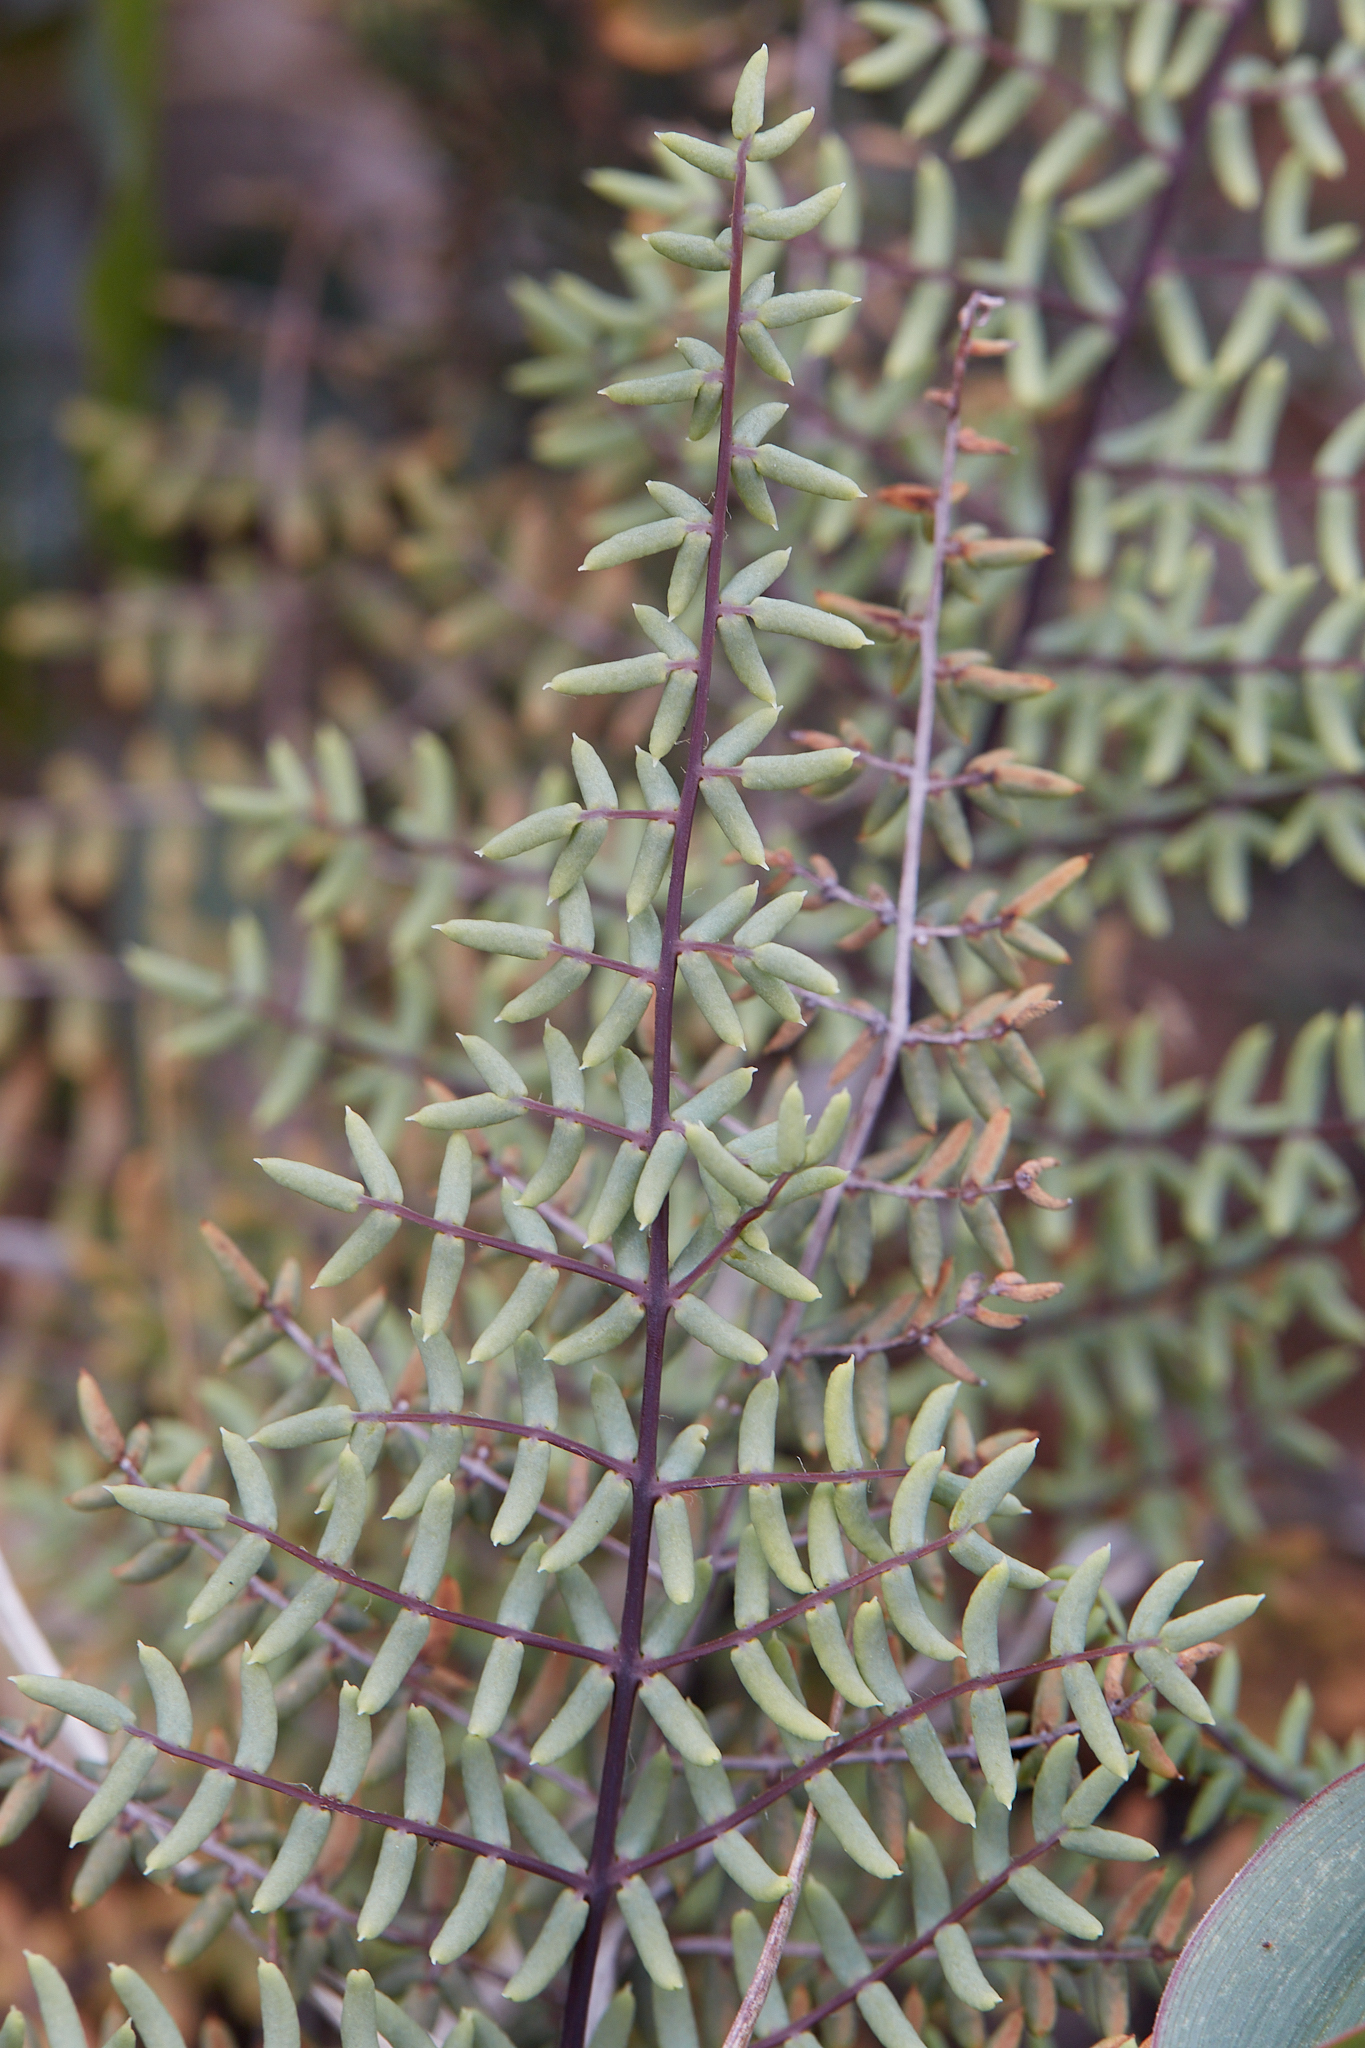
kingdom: Plantae
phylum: Tracheophyta
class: Polypodiopsida
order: Polypodiales
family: Pteridaceae
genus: Pellaea
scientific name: Pellaea mucronata
